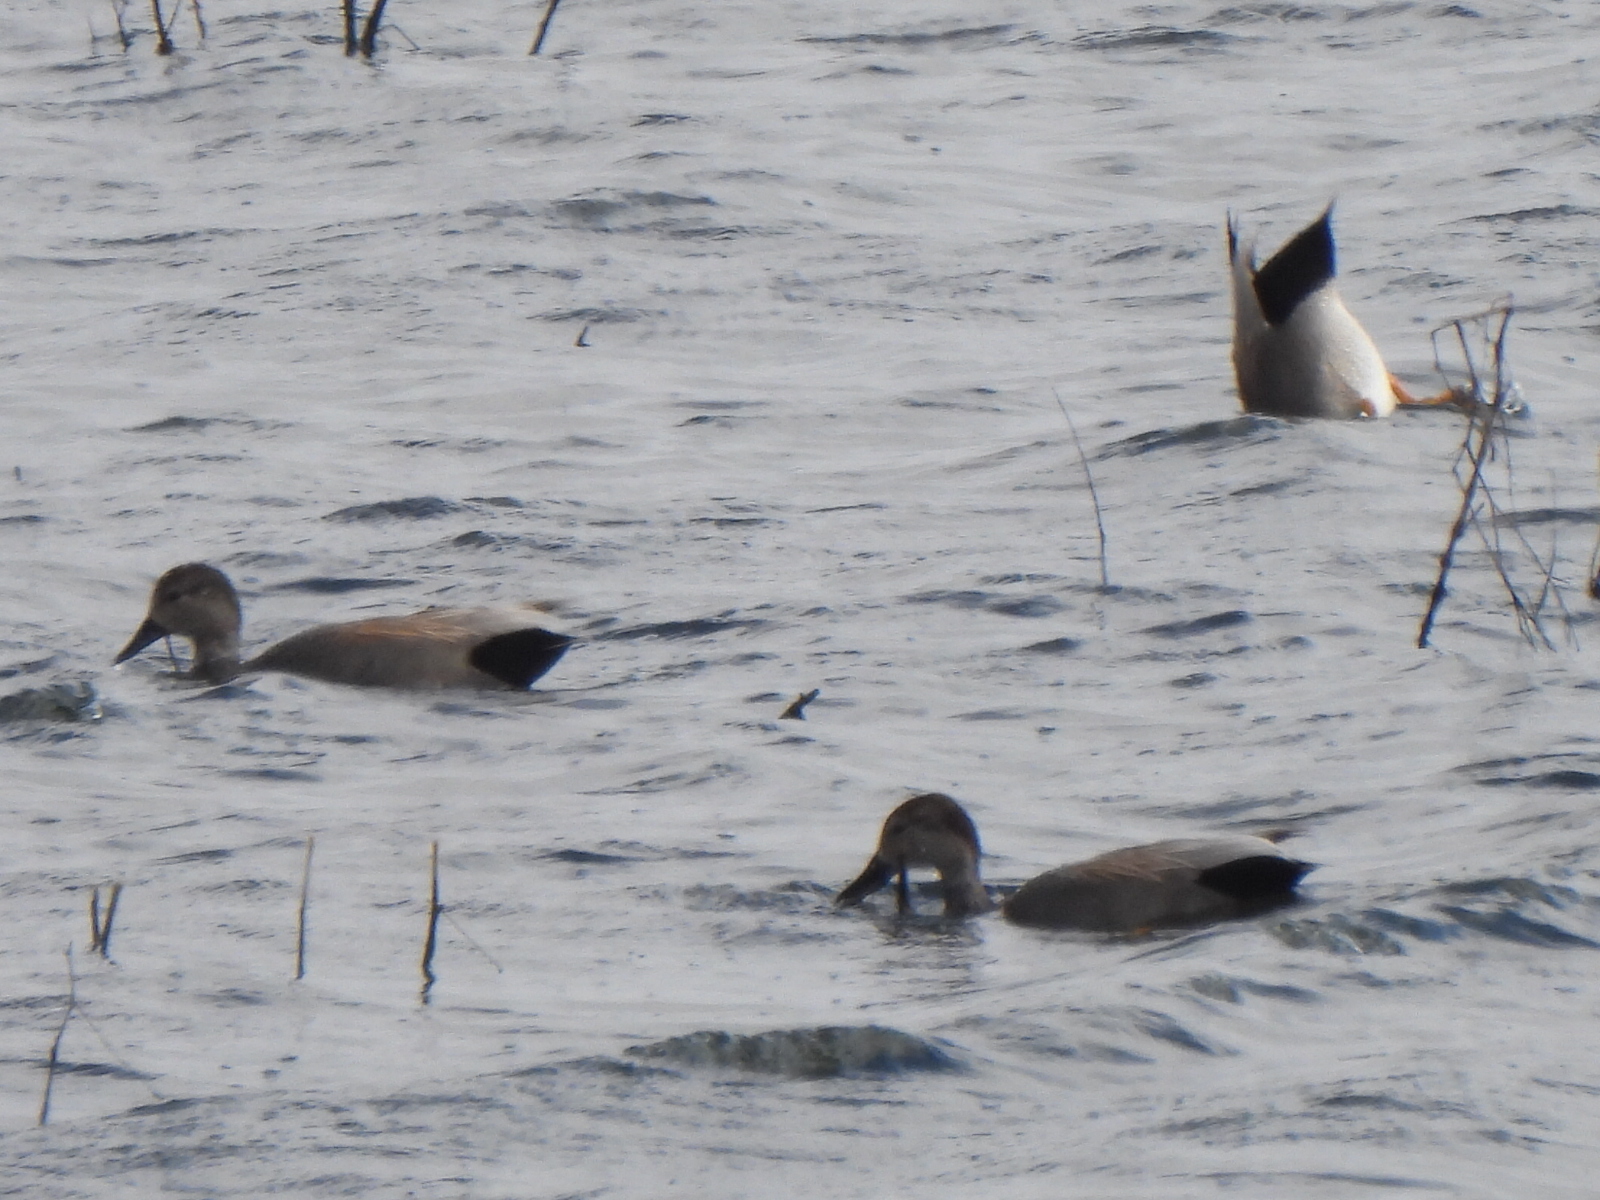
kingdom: Animalia
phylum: Chordata
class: Aves
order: Anseriformes
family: Anatidae
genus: Mareca
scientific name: Mareca strepera
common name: Gadwall
